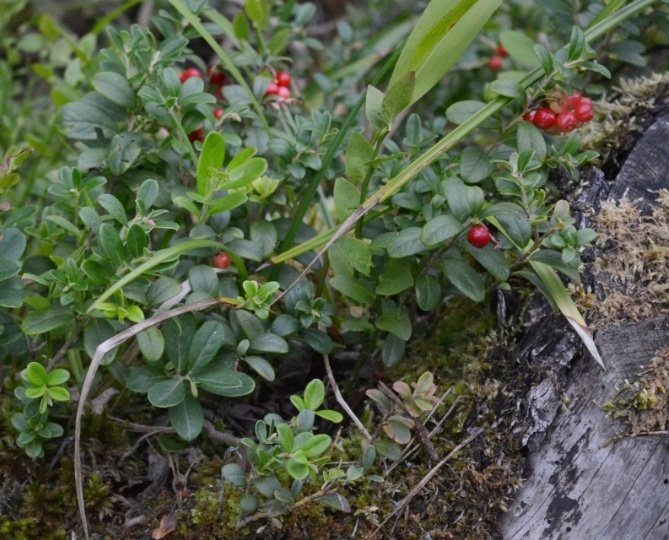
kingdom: Plantae
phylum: Tracheophyta
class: Magnoliopsida
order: Ericales
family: Ericaceae
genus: Vaccinium
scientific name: Vaccinium vitis-idaea
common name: Cowberry
